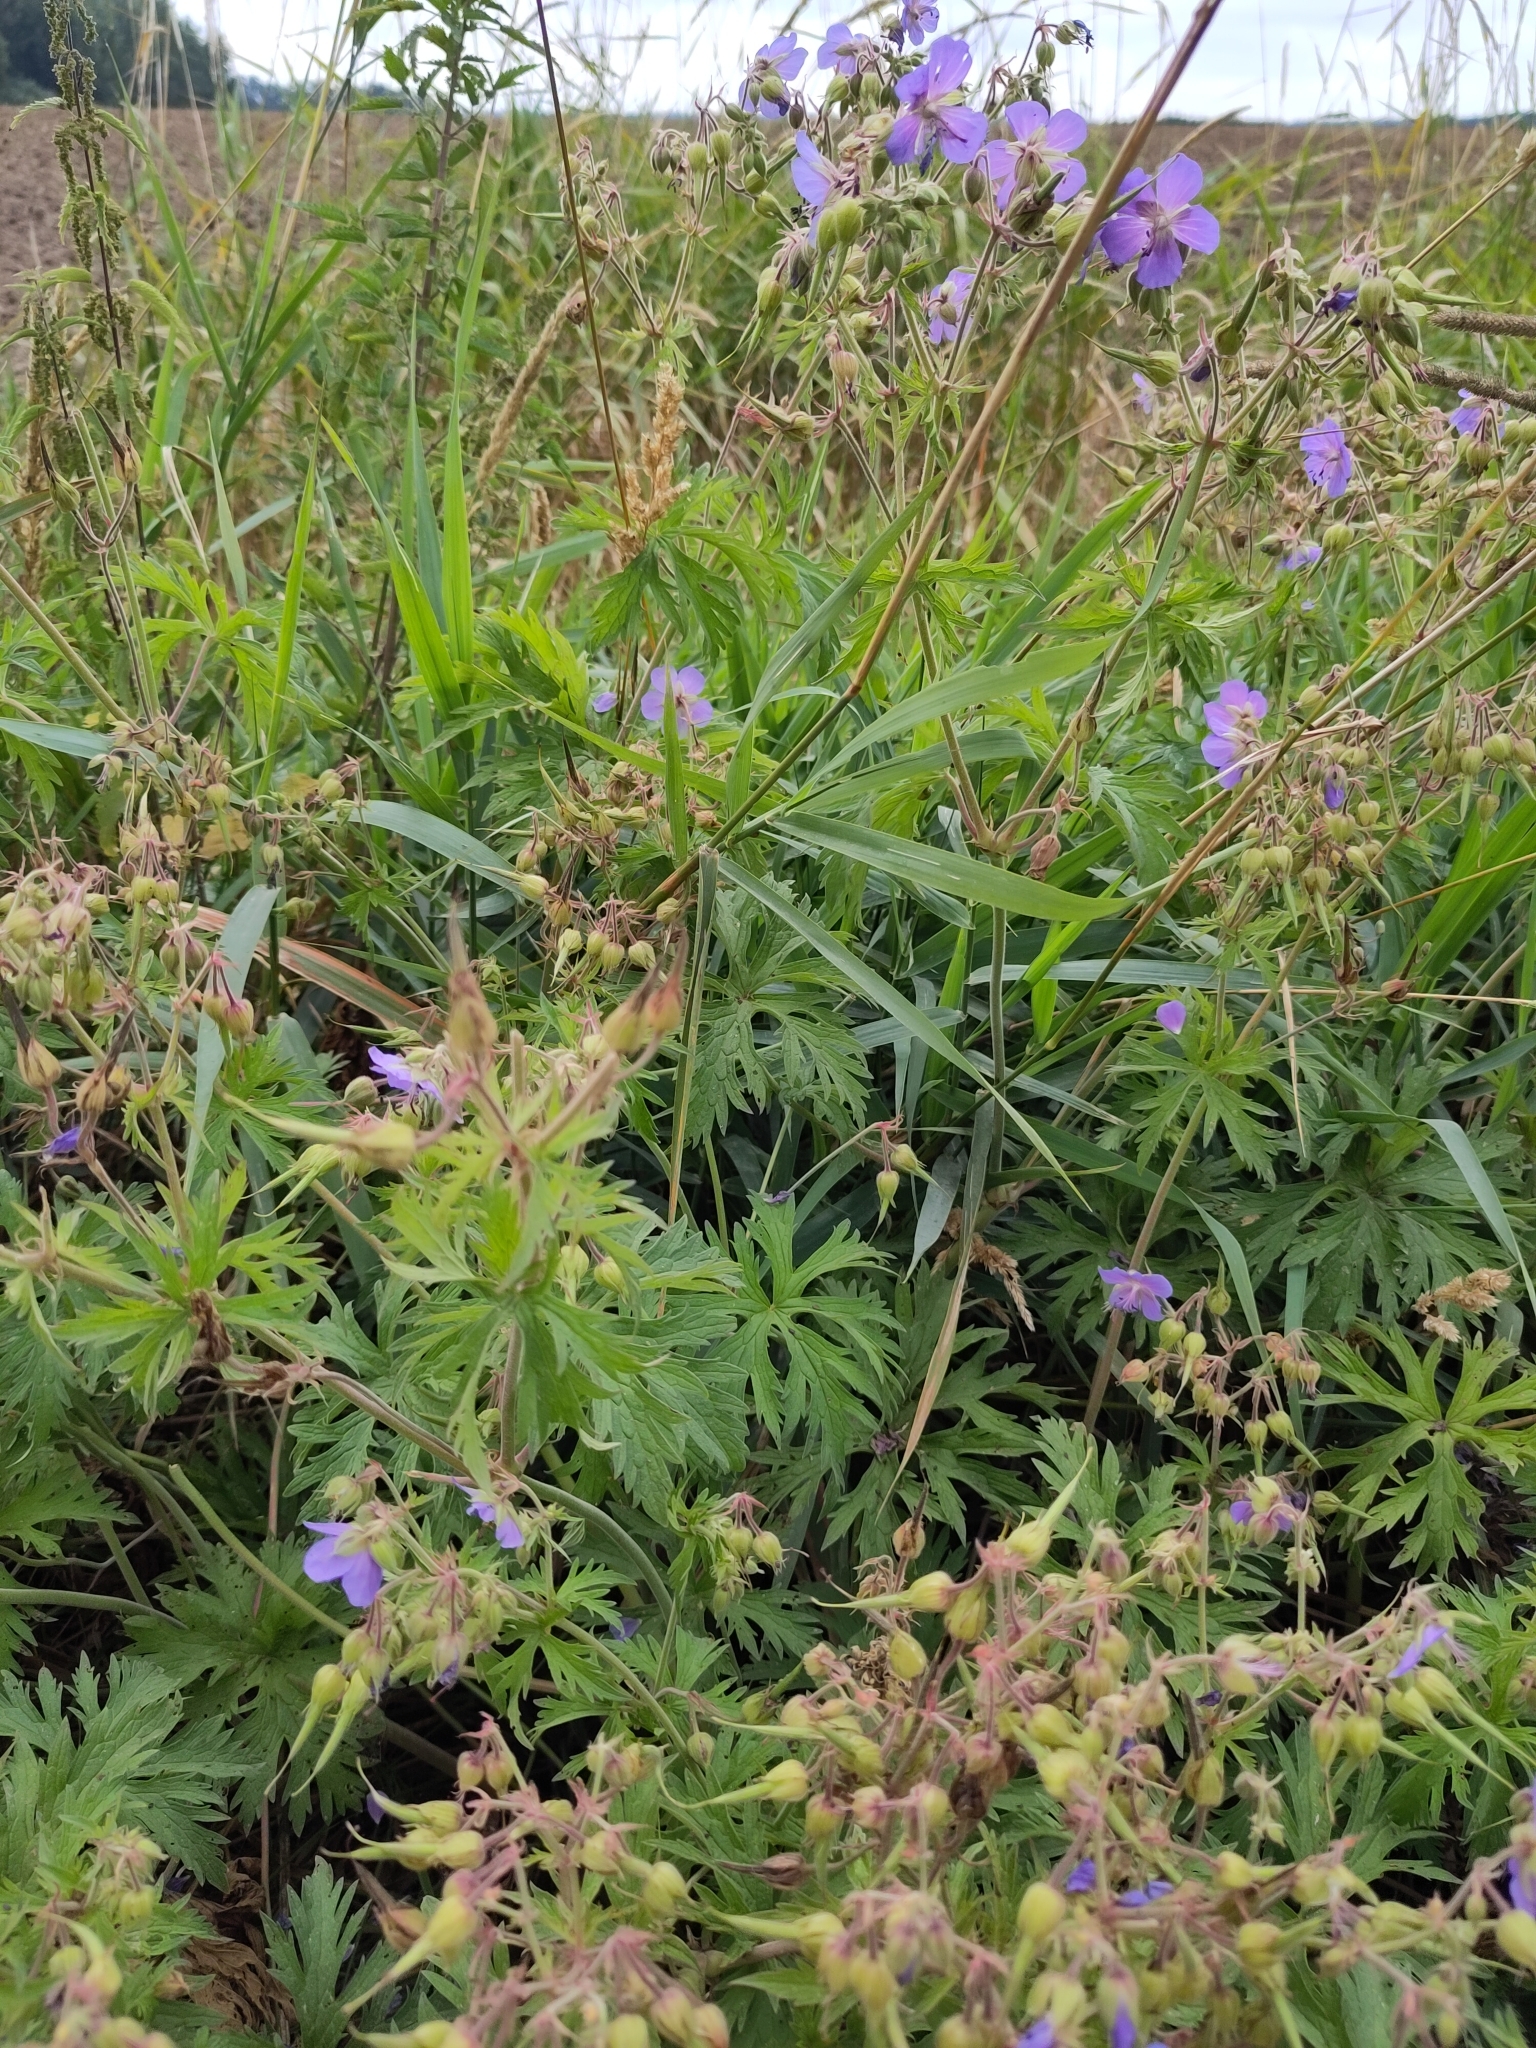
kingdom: Plantae
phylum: Tracheophyta
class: Magnoliopsida
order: Geraniales
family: Geraniaceae
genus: Geranium
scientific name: Geranium pratense
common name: Meadow crane's-bill
